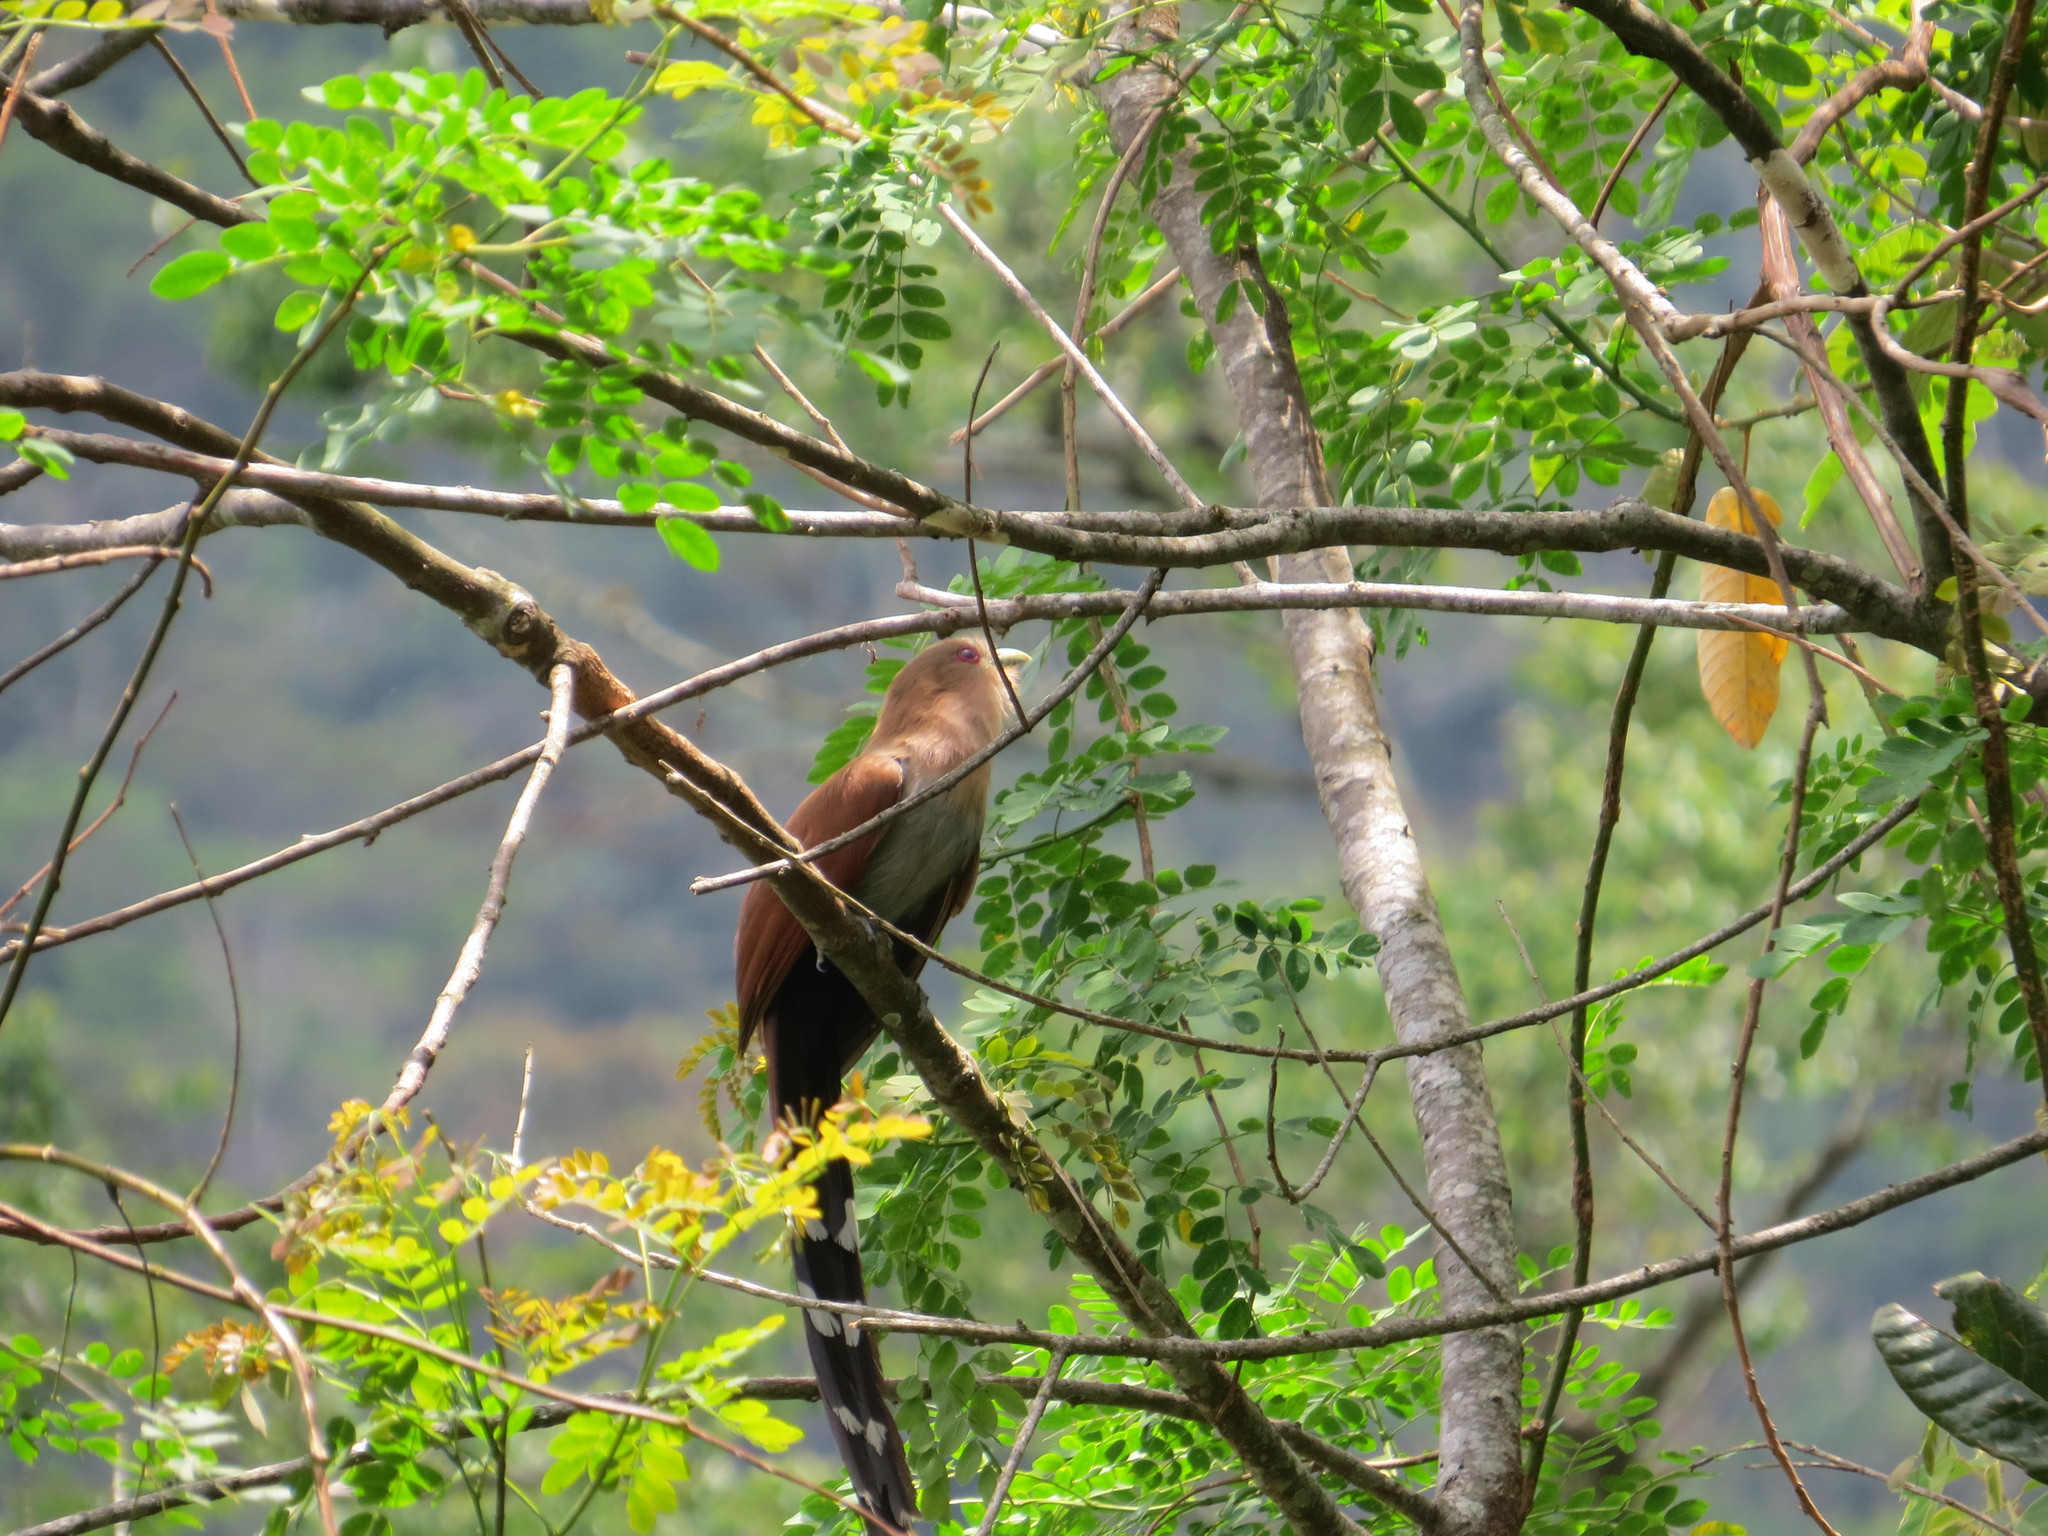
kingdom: Animalia
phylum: Chordata
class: Aves
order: Cuculiformes
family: Cuculidae
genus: Piaya
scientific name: Piaya cayana
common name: Squirrel cuckoo
